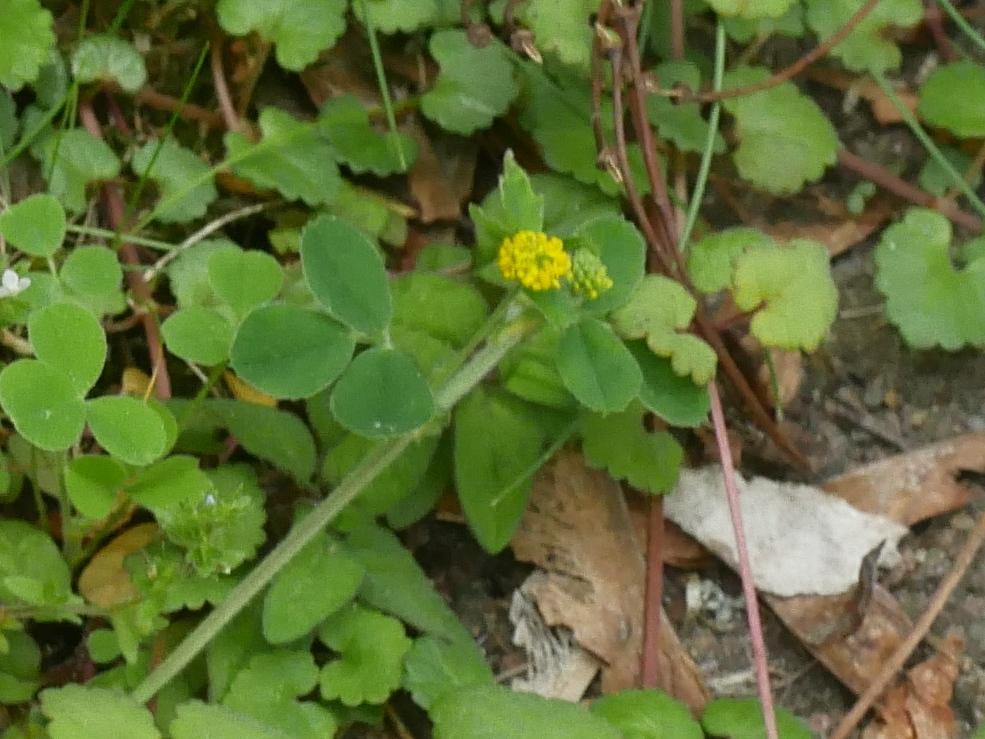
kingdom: Plantae
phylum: Tracheophyta
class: Magnoliopsida
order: Fabales
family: Fabaceae
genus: Medicago
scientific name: Medicago lupulina
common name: Black medick
